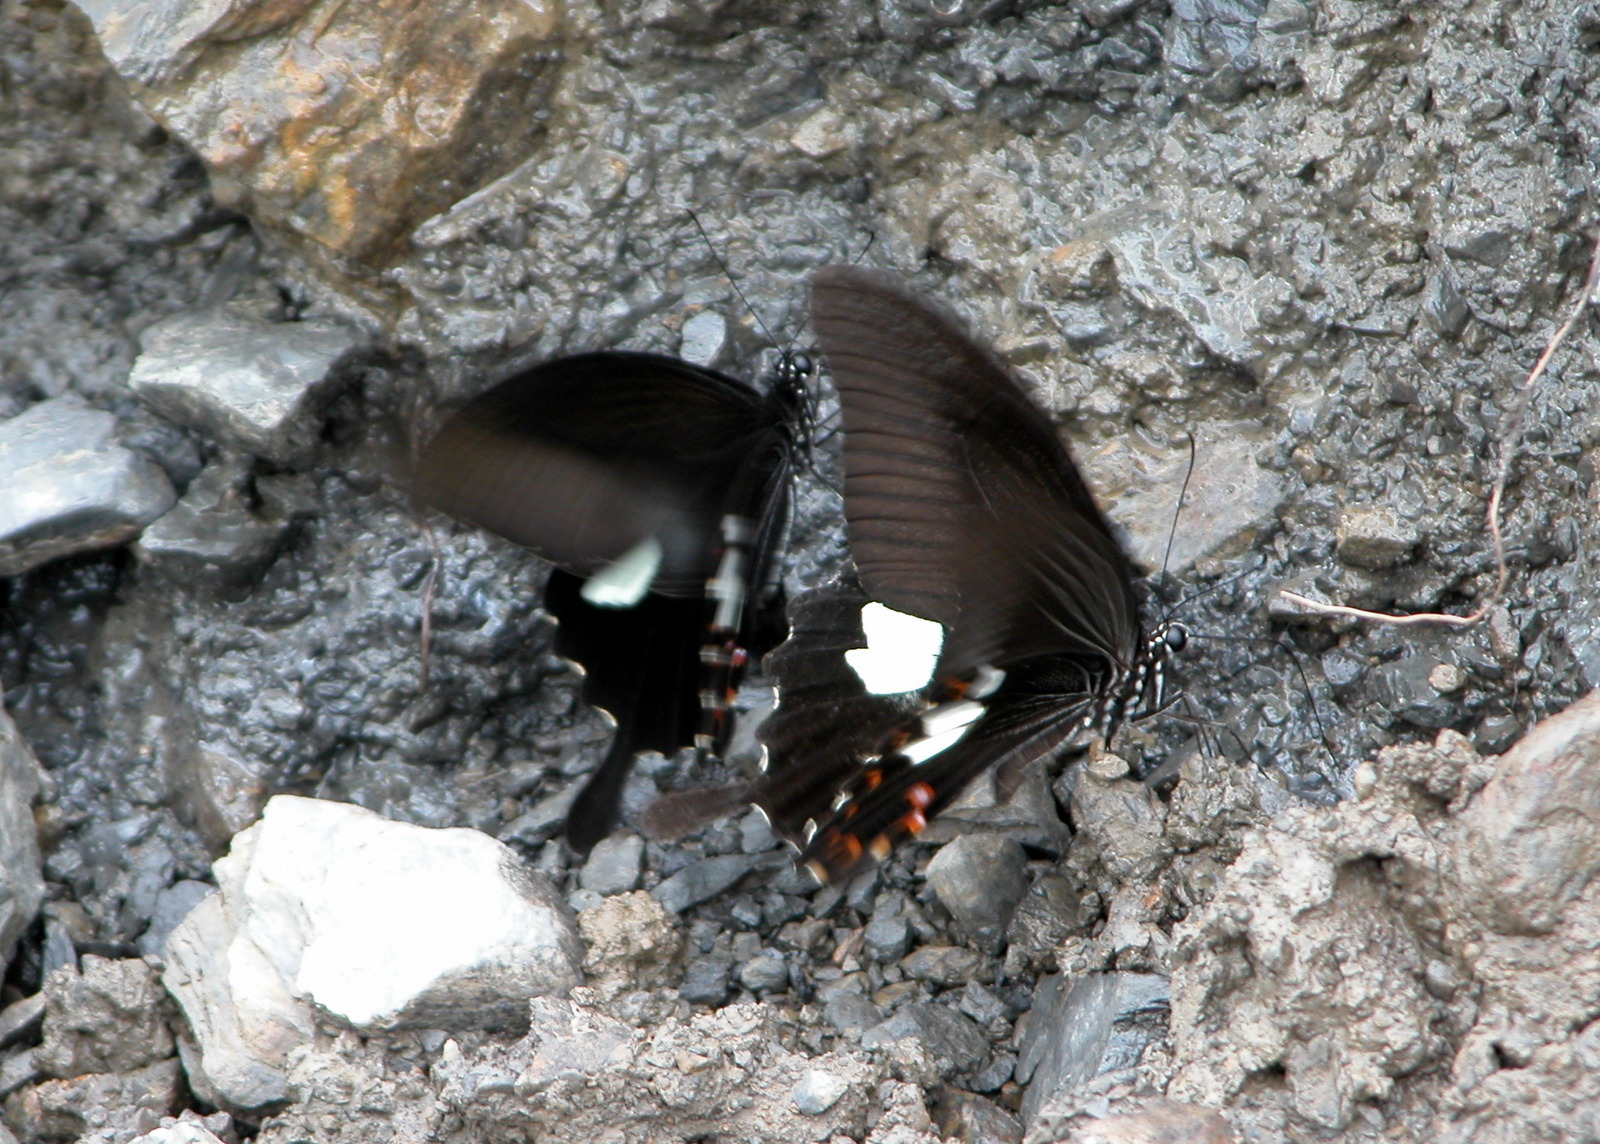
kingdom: Animalia
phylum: Arthropoda
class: Insecta
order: Lepidoptera
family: Papilionidae
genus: Papilio
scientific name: Papilio helenus
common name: Red helen
